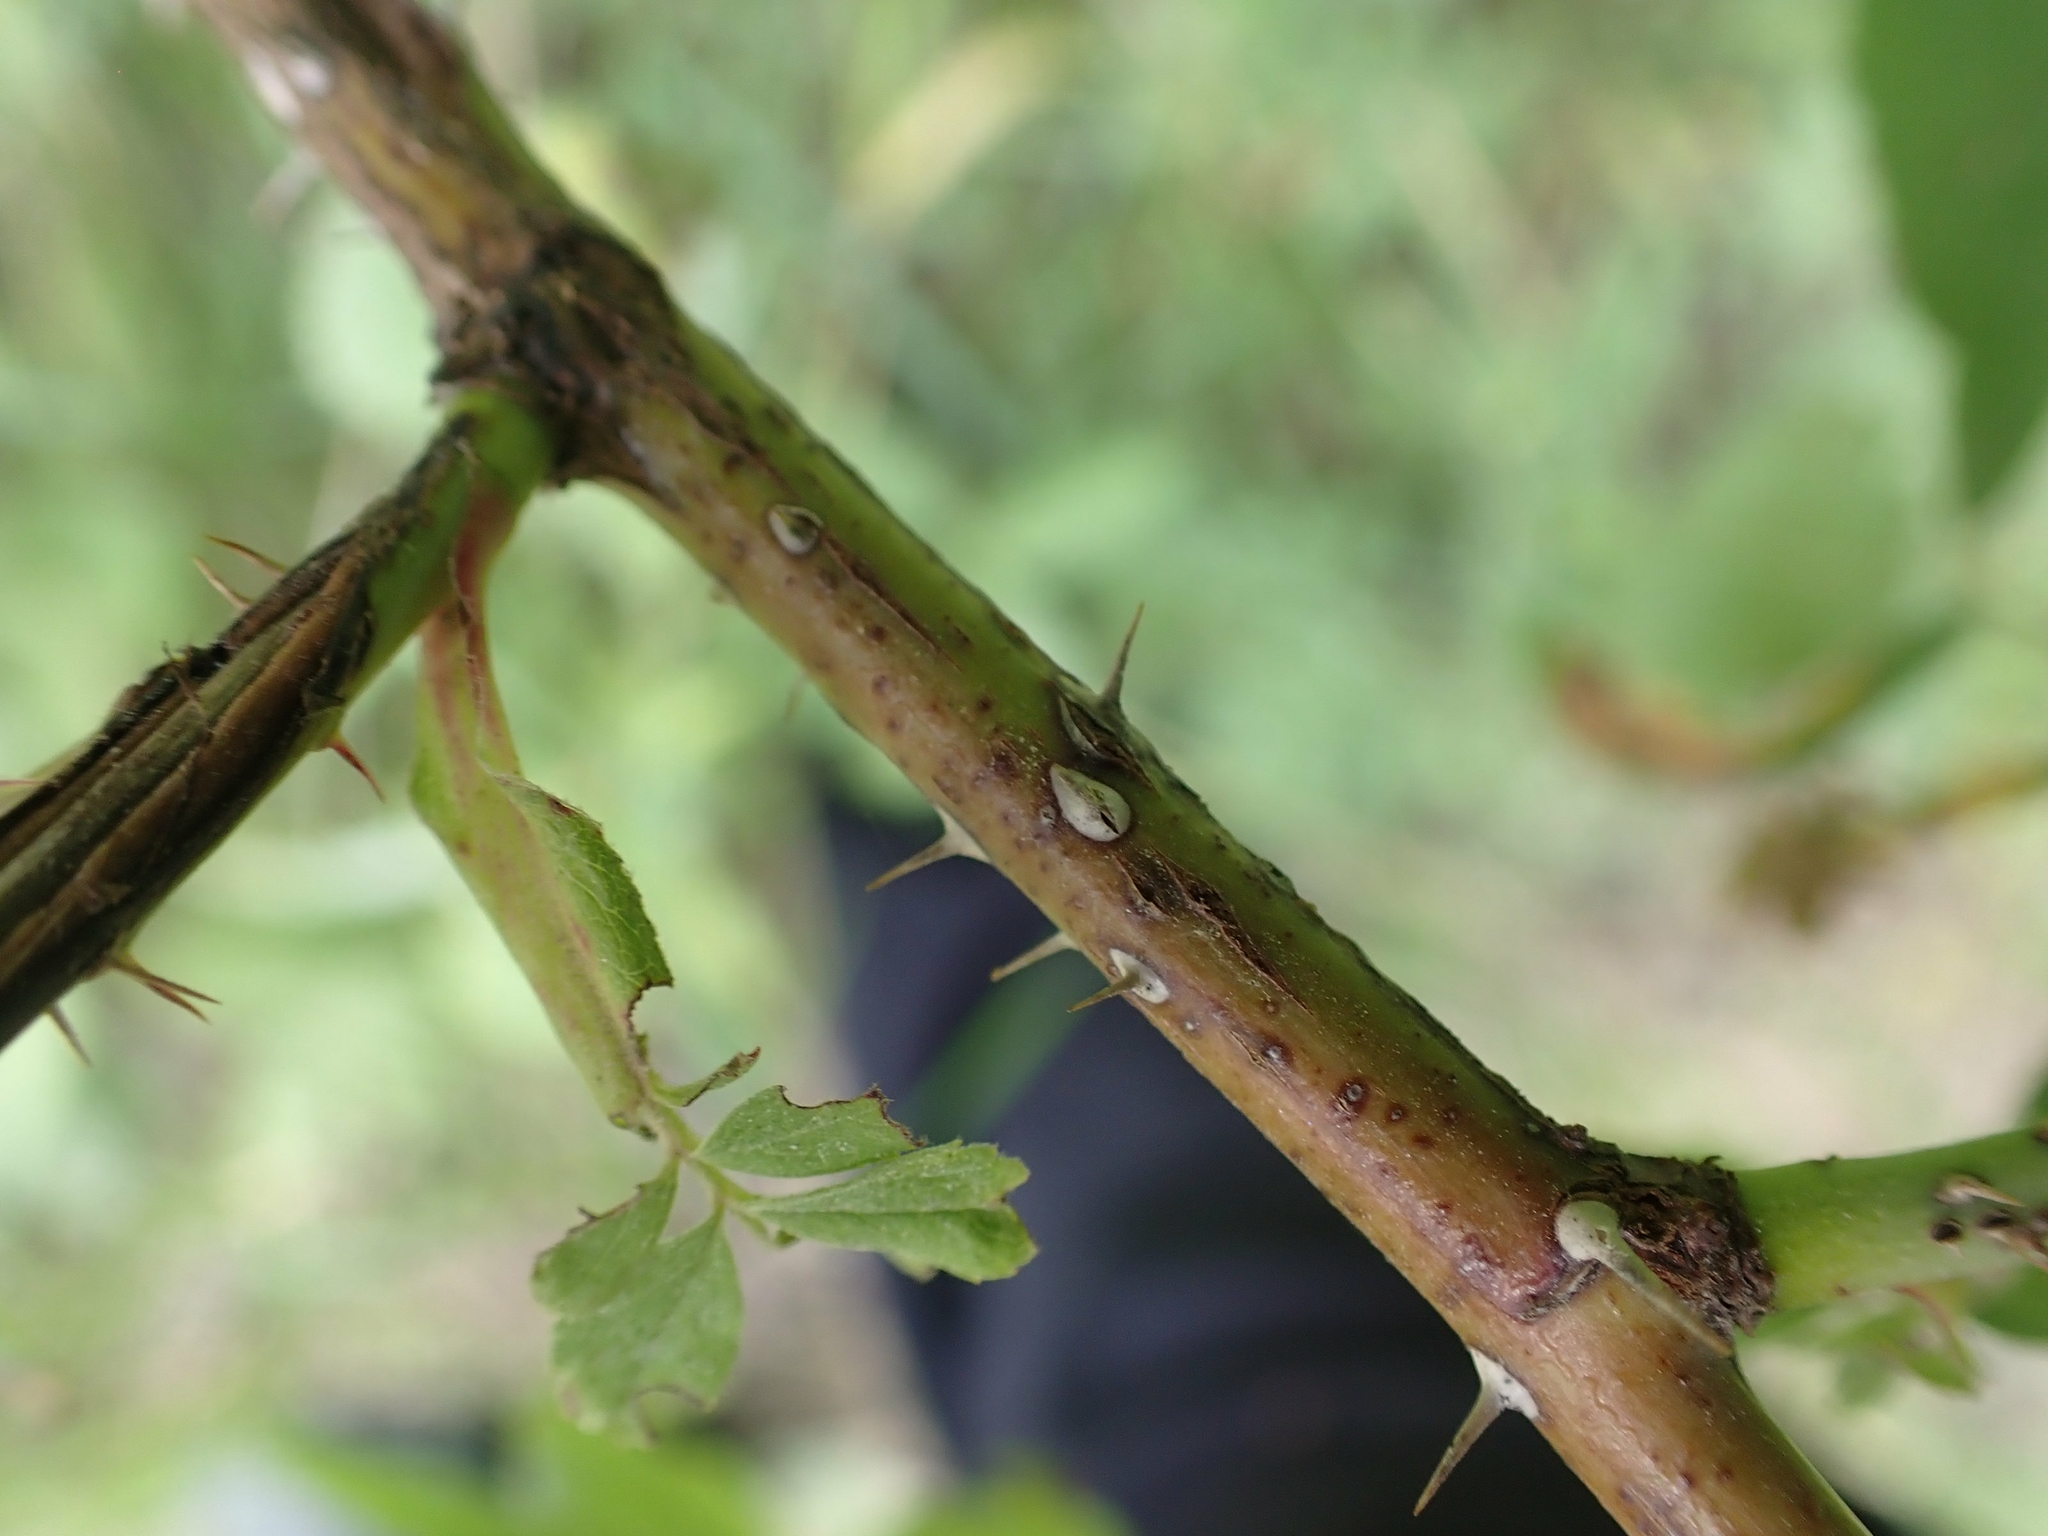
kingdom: Plantae
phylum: Tracheophyta
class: Magnoliopsida
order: Rosales
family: Rosaceae
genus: Rosa
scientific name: Rosa woodsii
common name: Woods's rose
